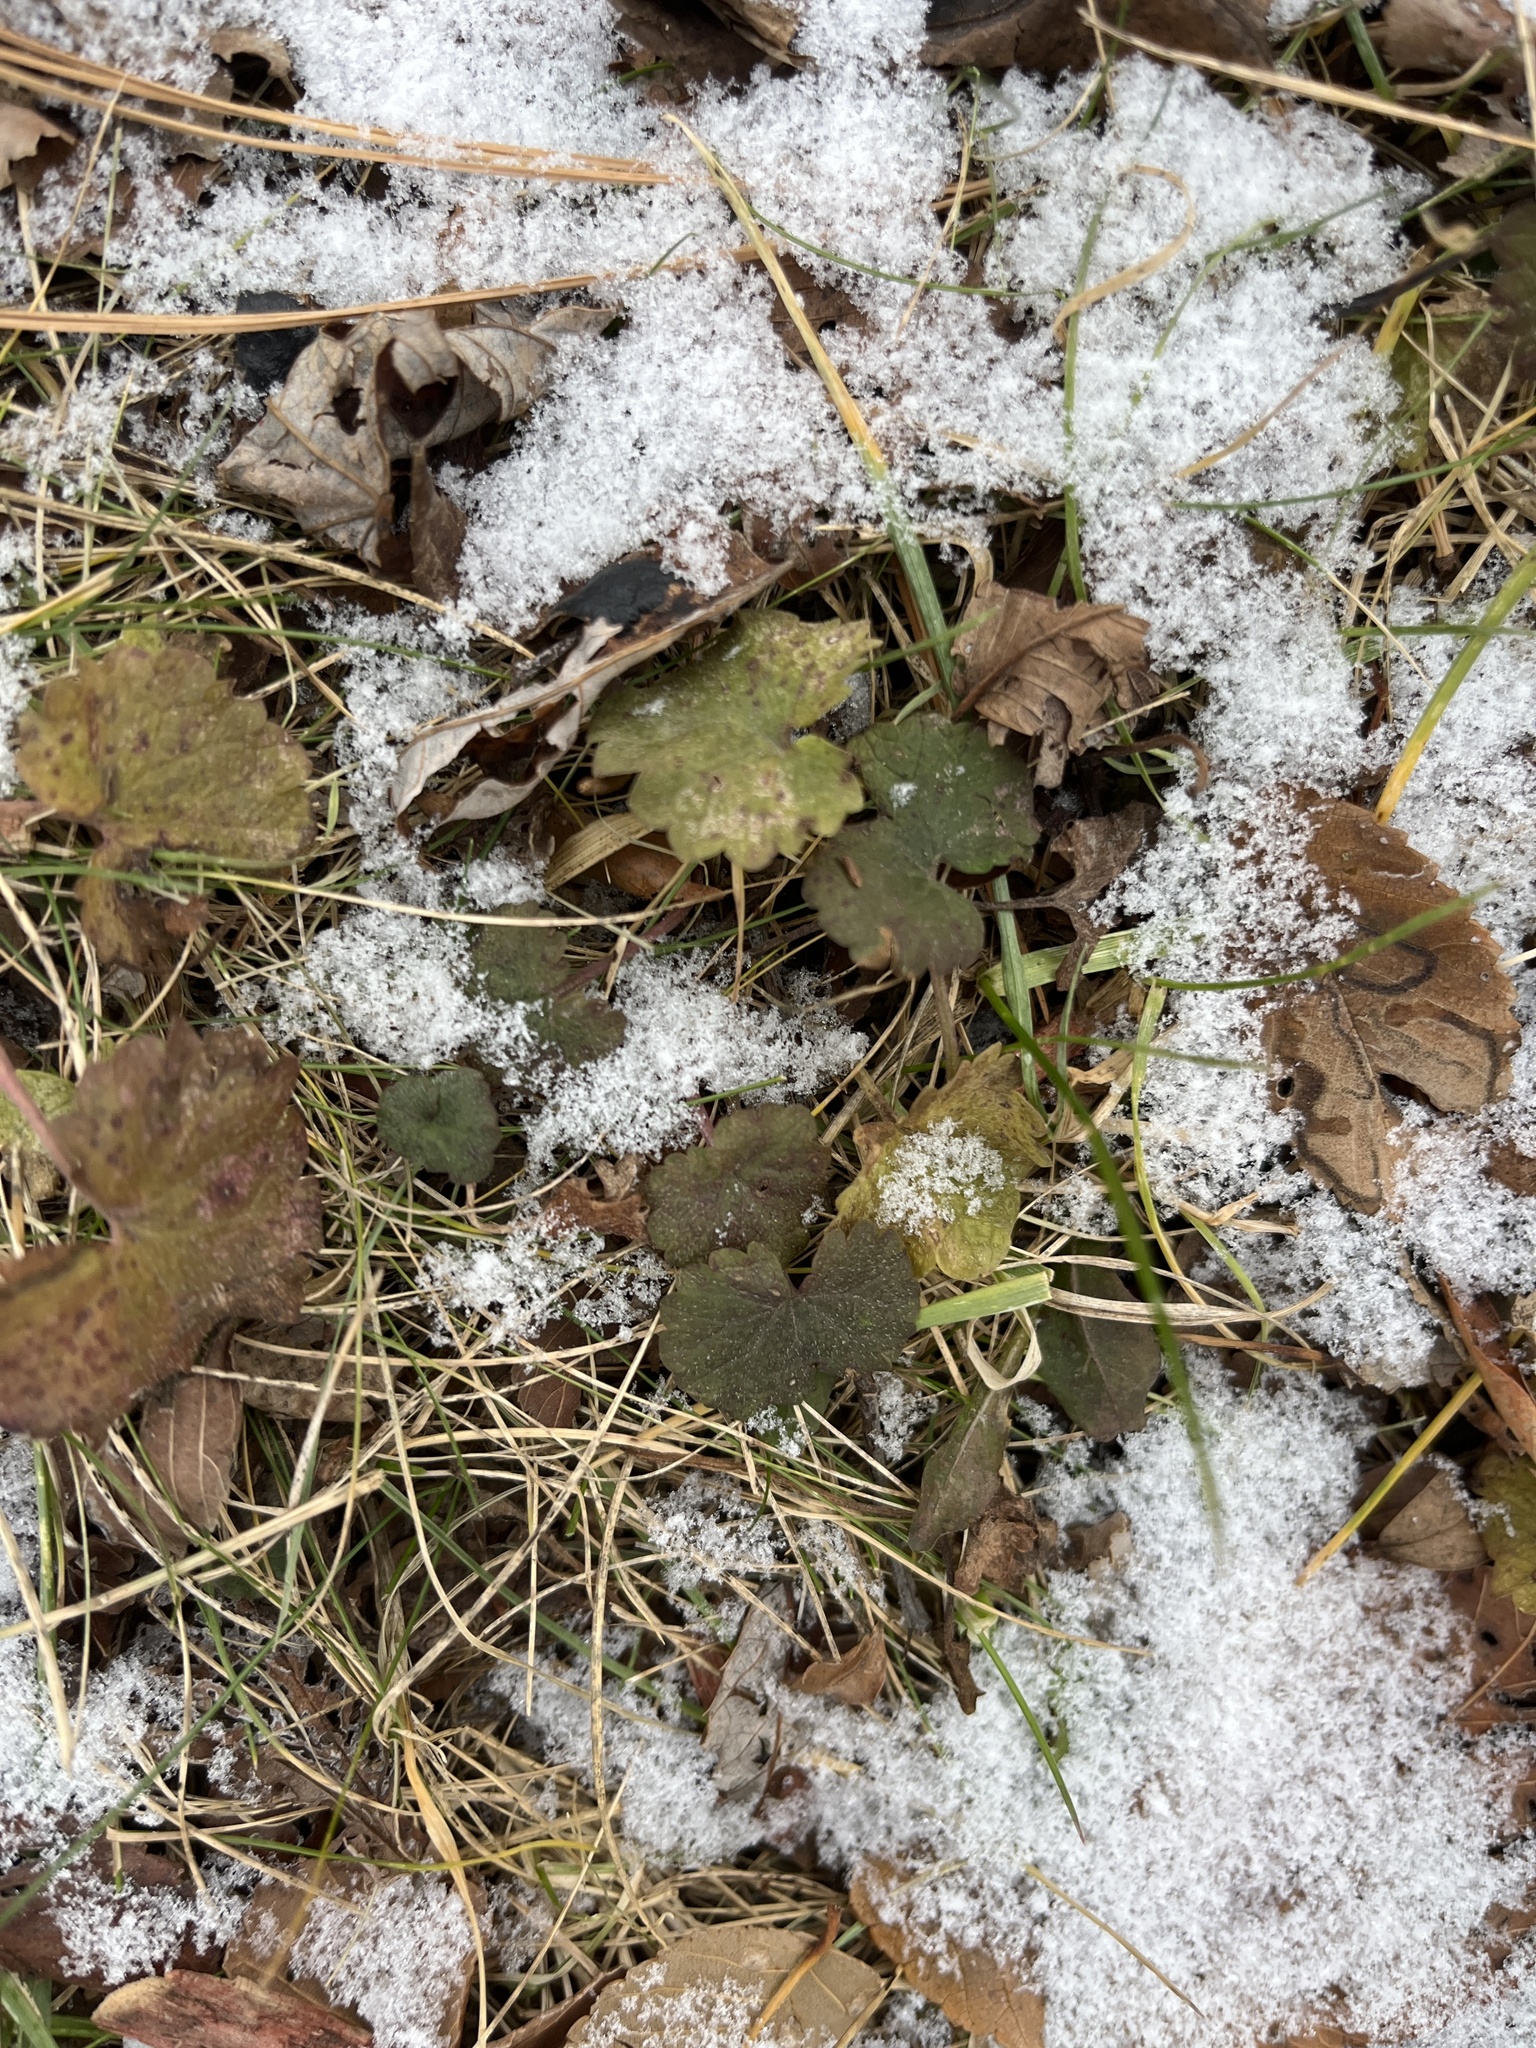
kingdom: Plantae
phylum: Tracheophyta
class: Magnoliopsida
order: Lamiales
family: Lamiaceae
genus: Glechoma
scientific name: Glechoma hederacea
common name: Ground ivy
